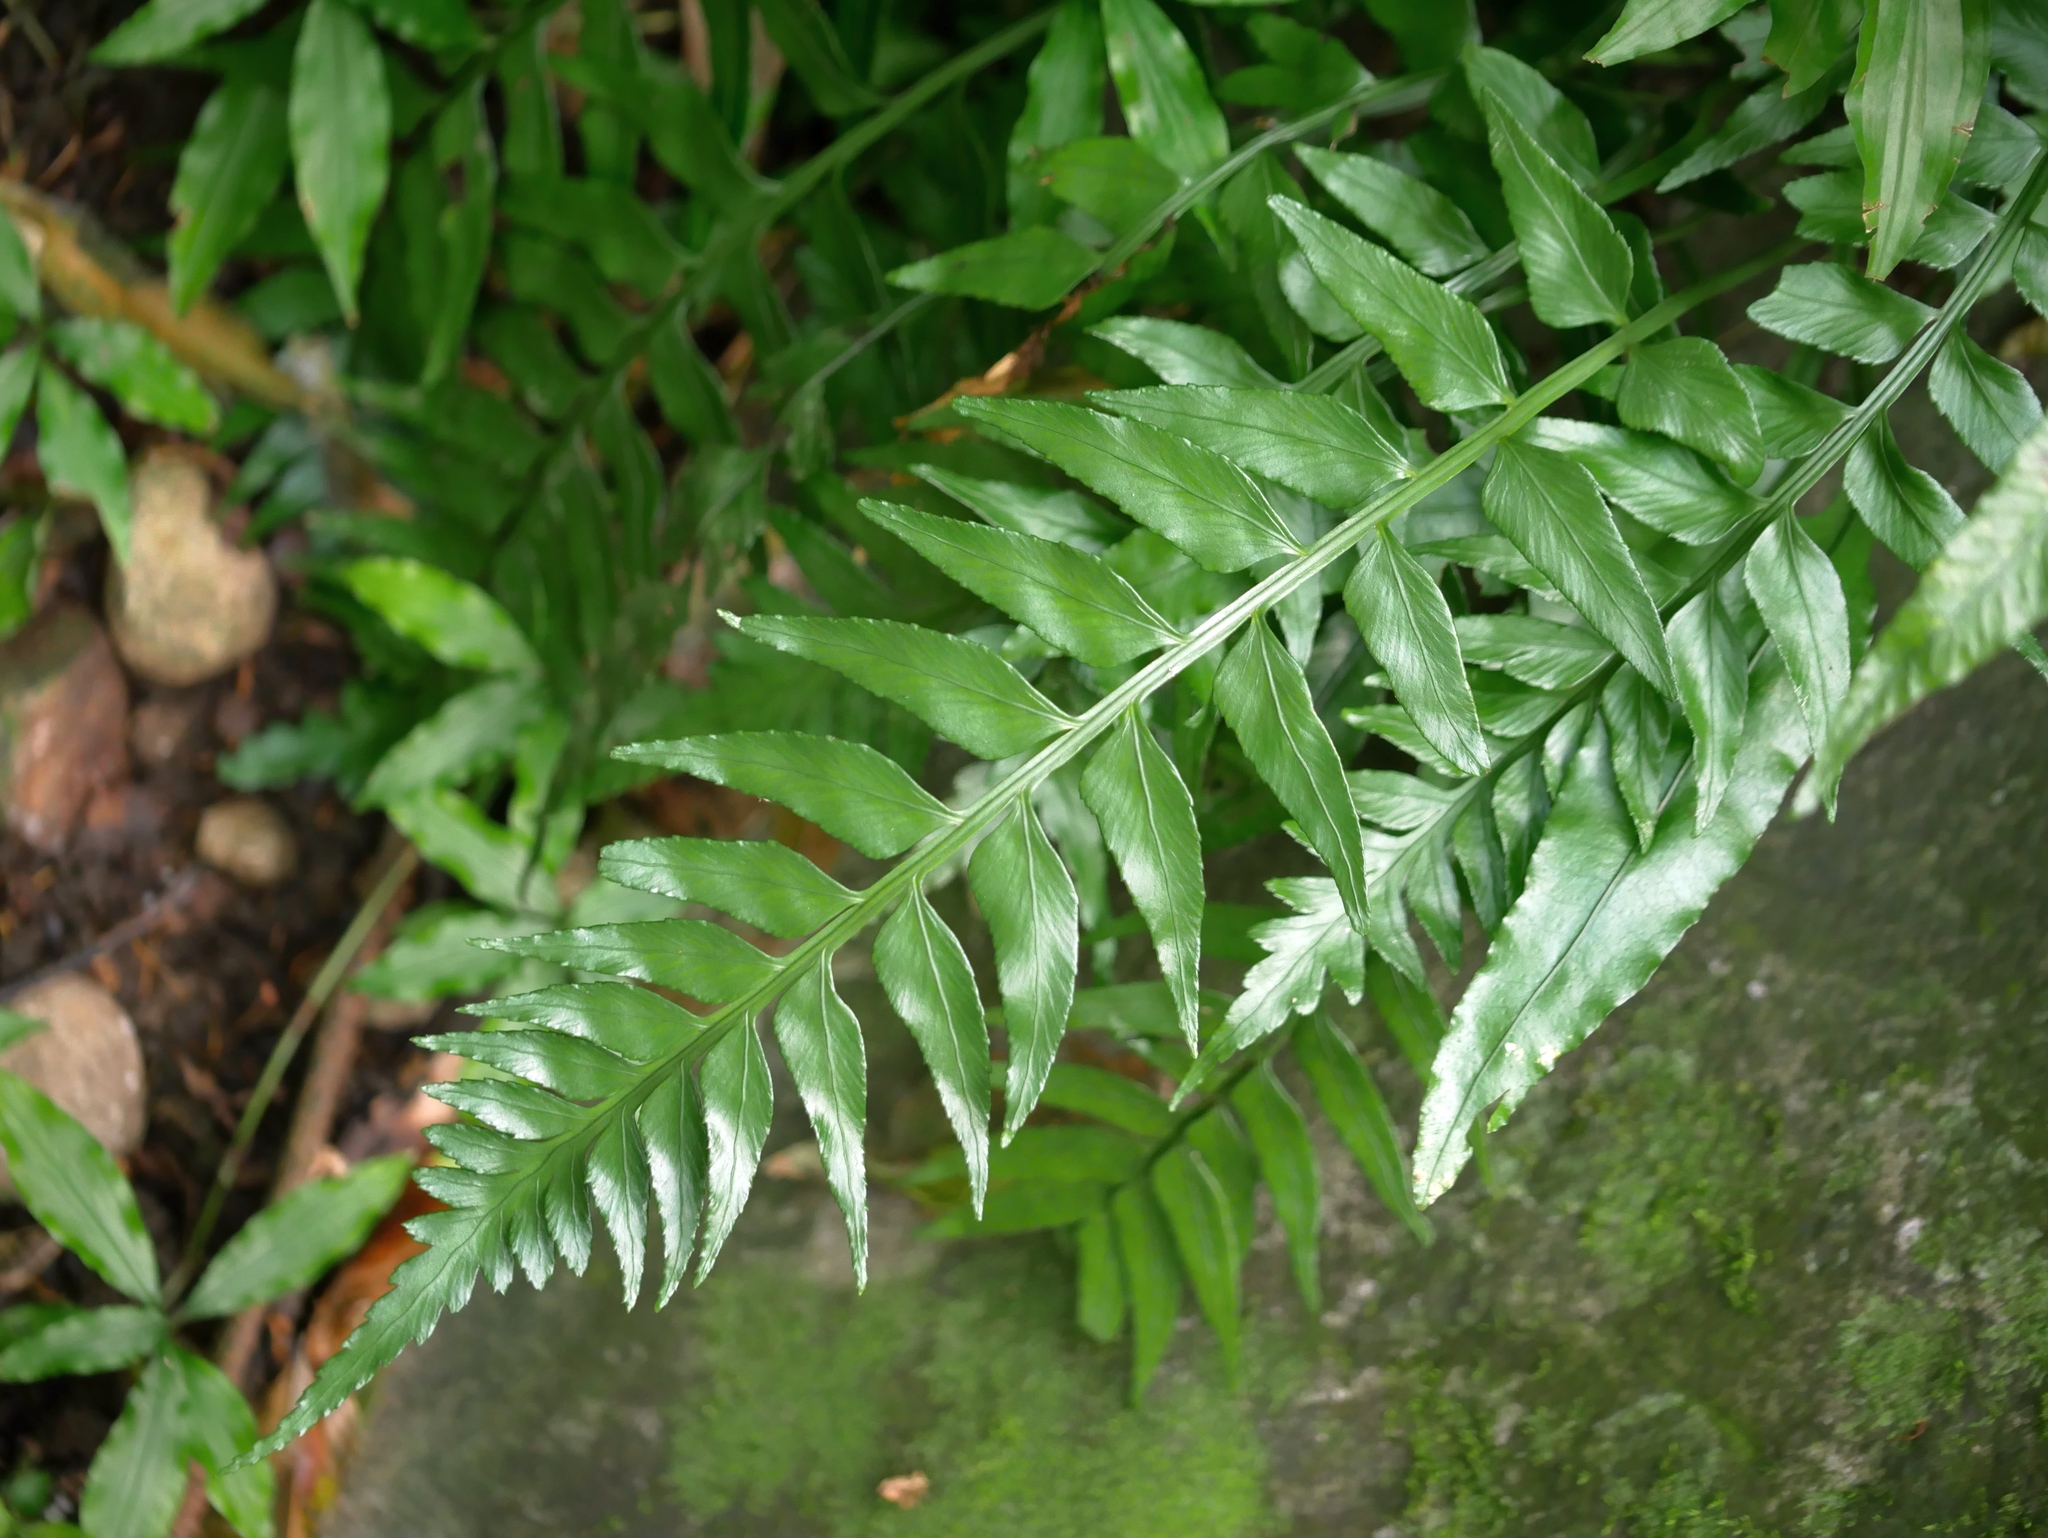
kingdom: Plantae
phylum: Tracheophyta
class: Polypodiopsida
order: Polypodiales
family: Aspleniaceae
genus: Asplenium
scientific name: Asplenium wrightii
